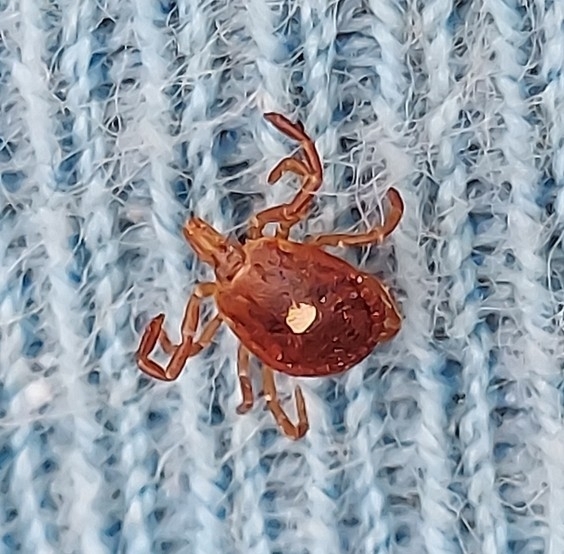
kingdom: Animalia
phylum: Arthropoda
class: Arachnida
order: Ixodida
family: Ixodidae
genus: Amblyomma
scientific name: Amblyomma americanum
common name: Lone star tick
